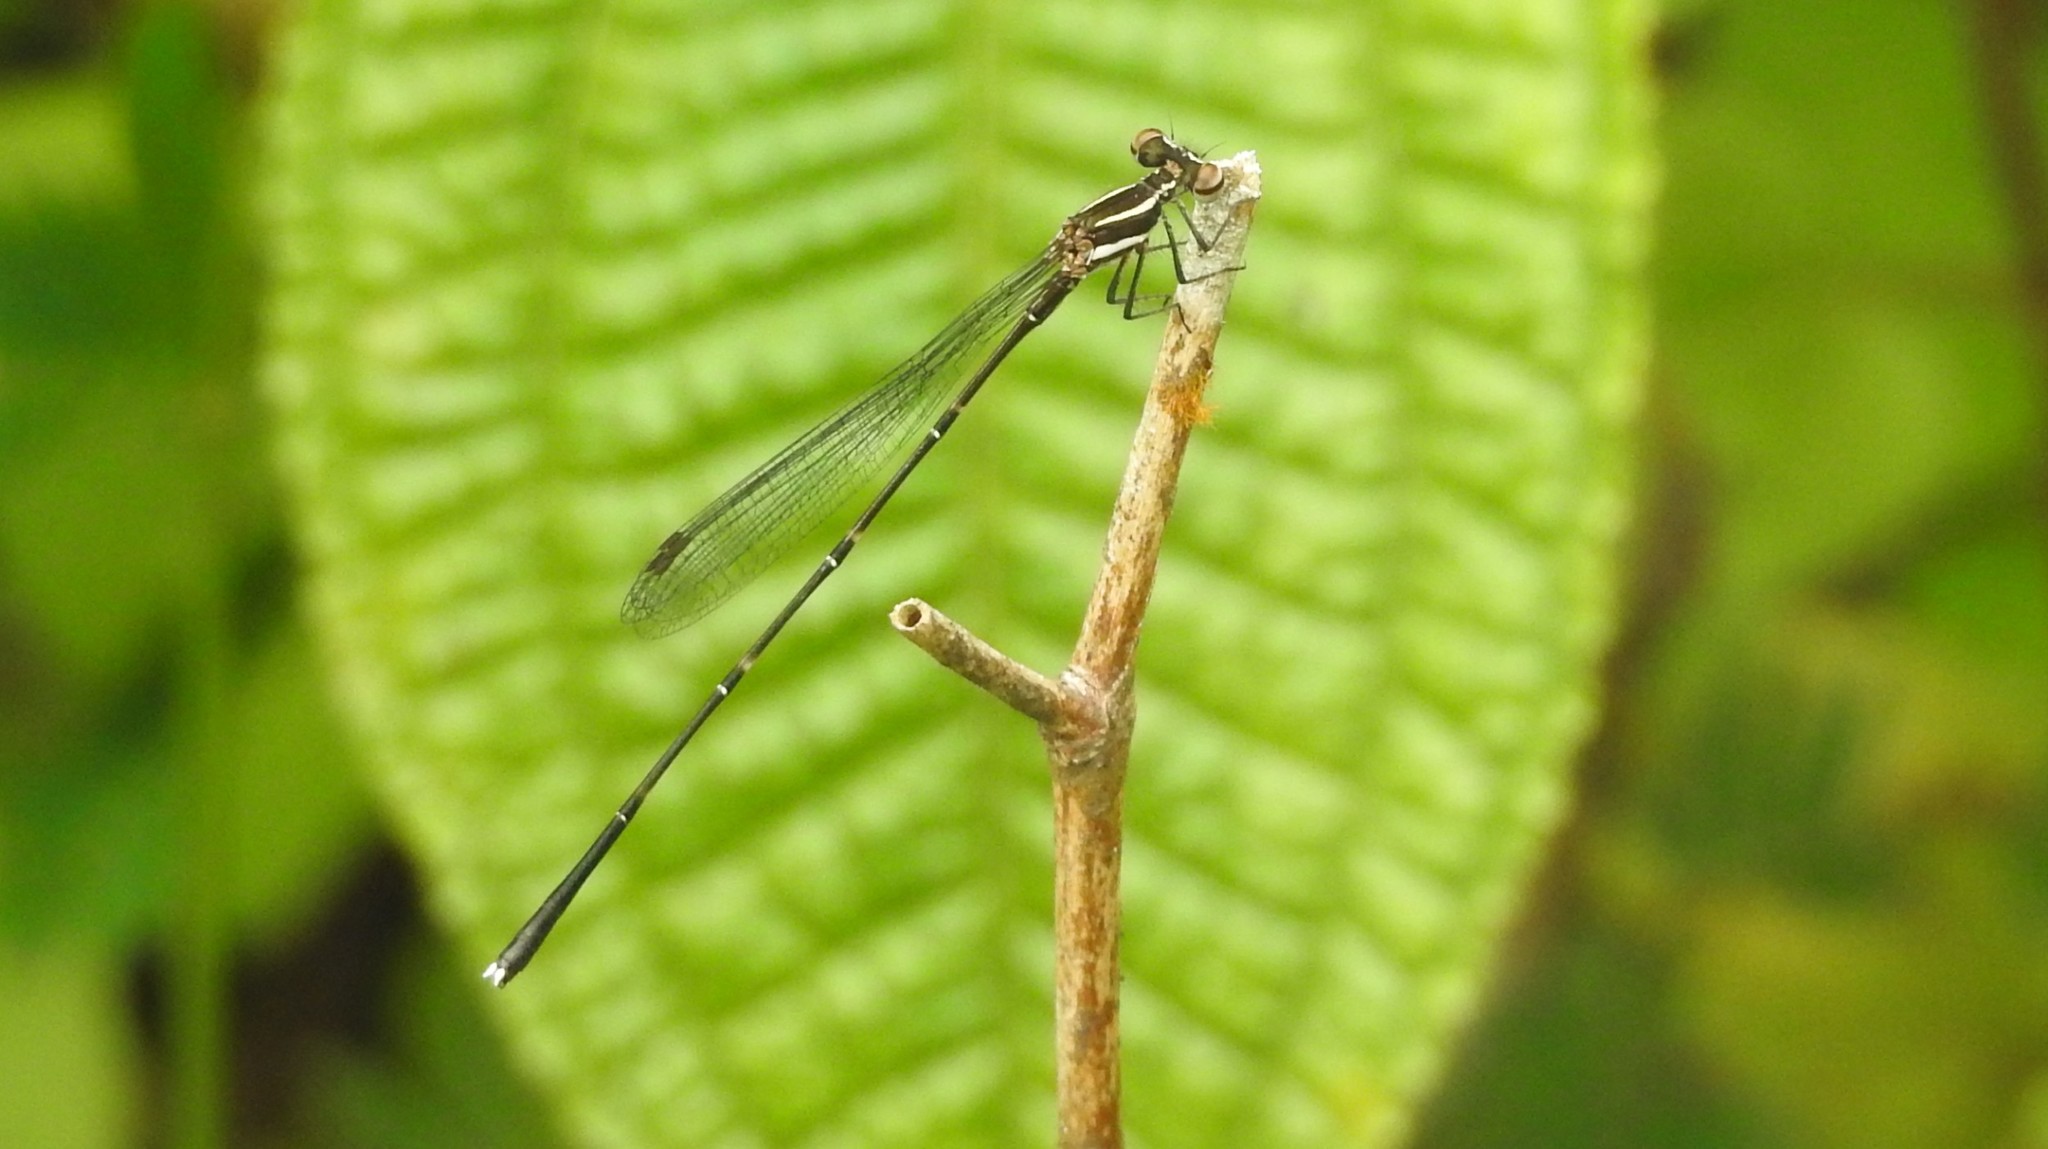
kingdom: Animalia
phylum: Arthropoda
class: Insecta
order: Odonata
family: Platycnemididae
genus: Prodasineura
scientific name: Prodasineura verticalis
